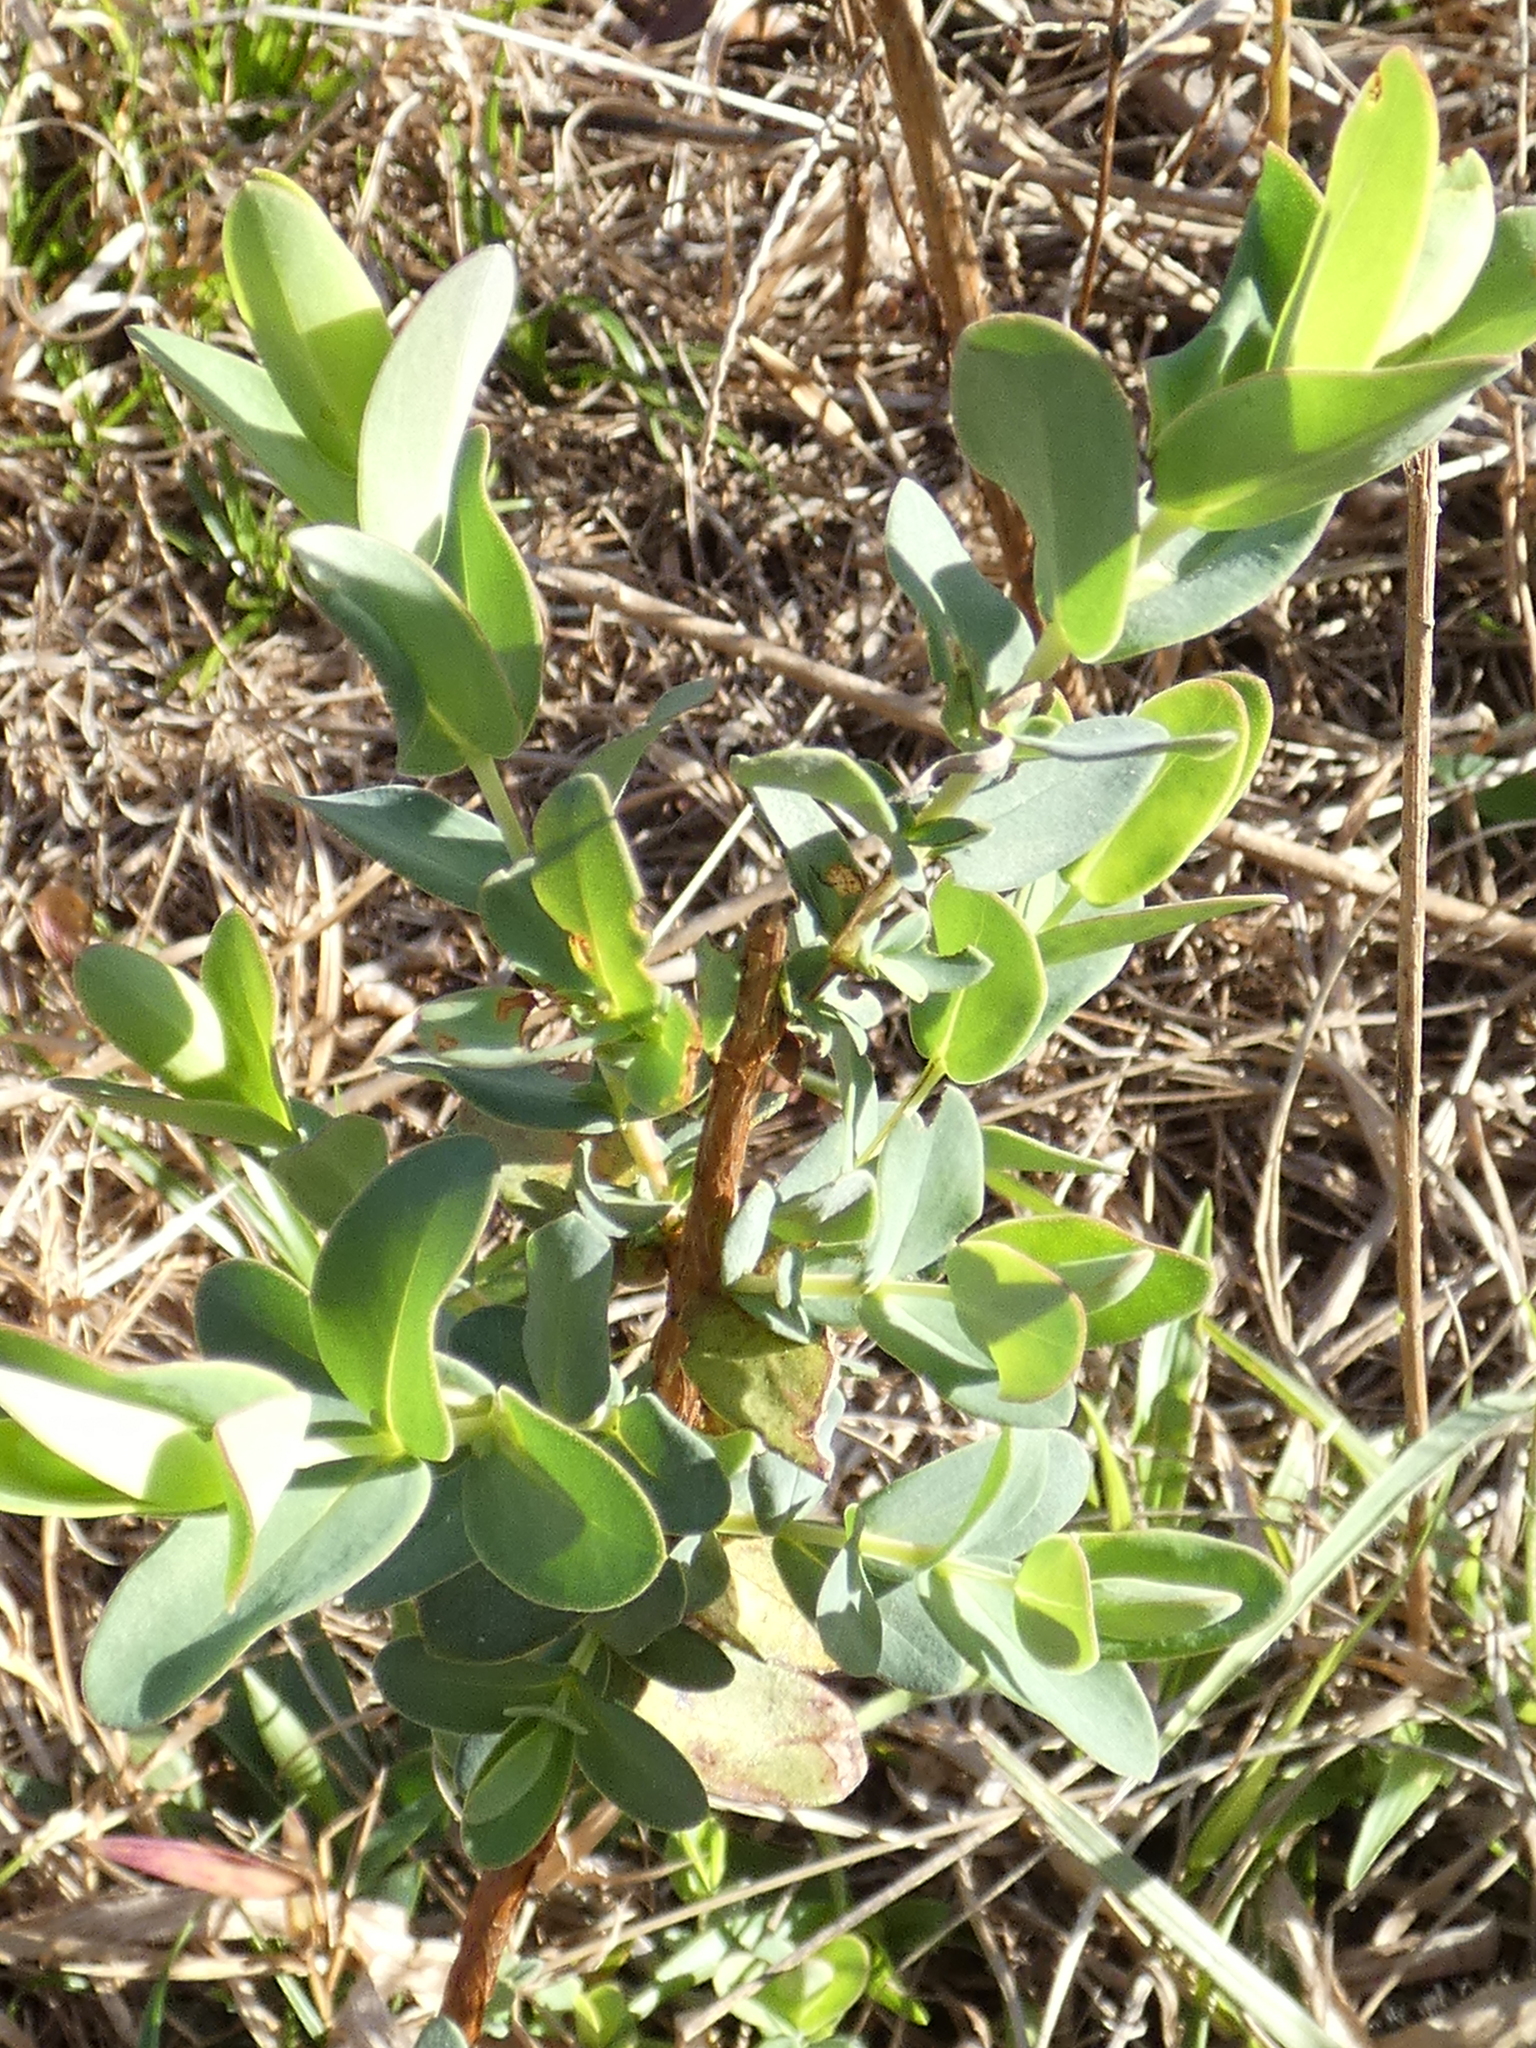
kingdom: Plantae
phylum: Tracheophyta
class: Magnoliopsida
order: Malpighiales
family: Hypericaceae
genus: Hypericum
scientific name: Hypericum tetrapetalum
